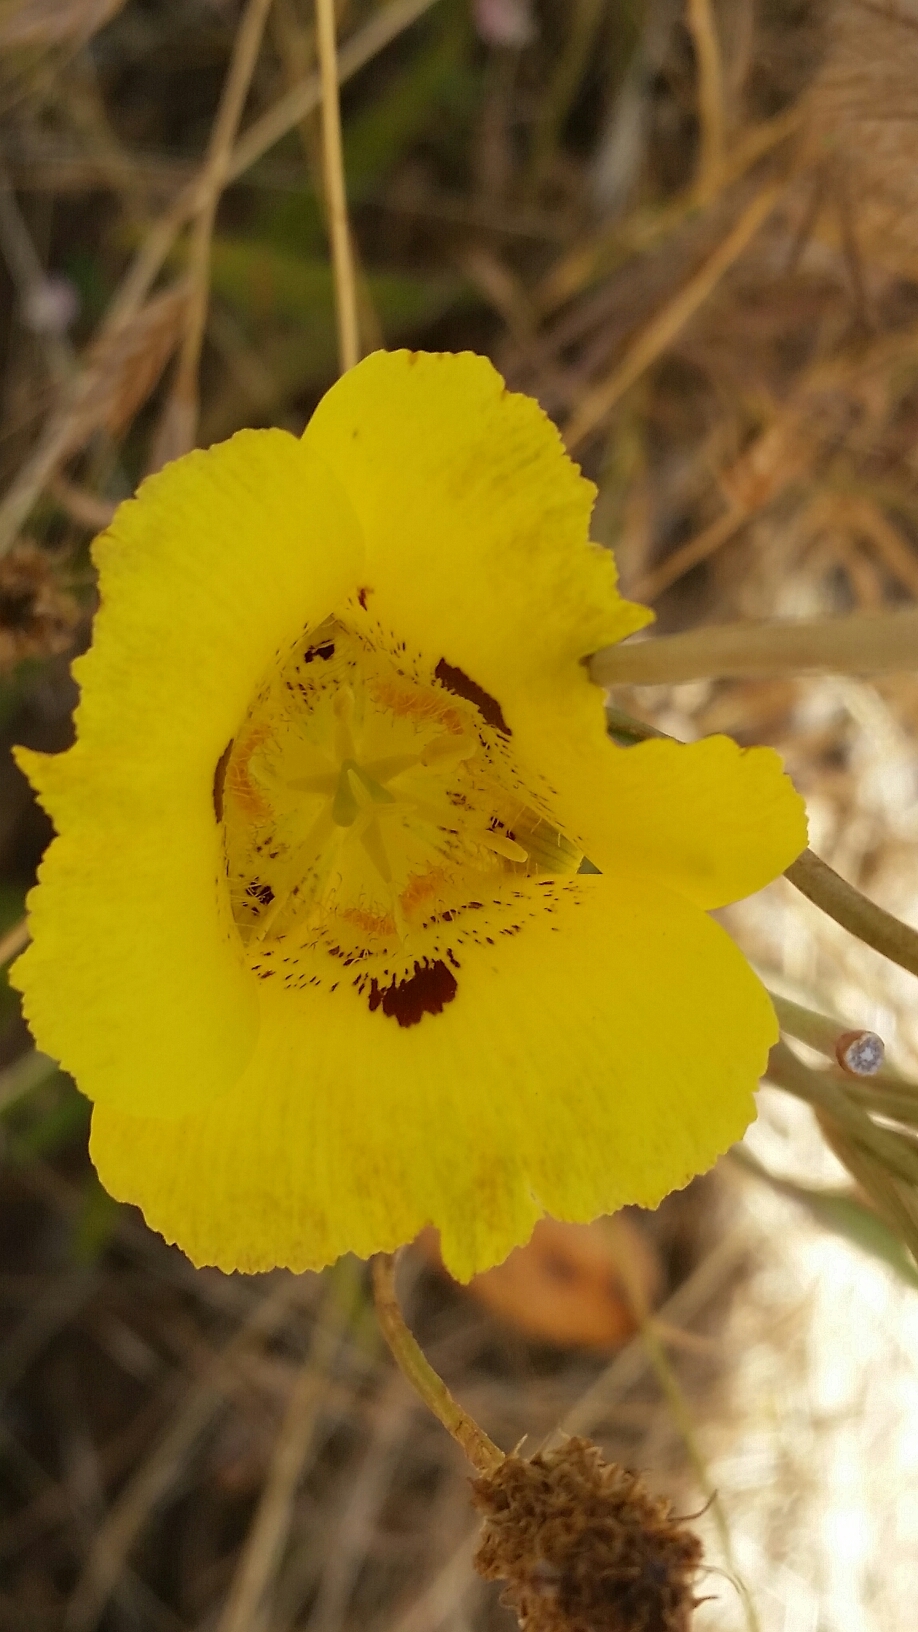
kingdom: Plantae
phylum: Tracheophyta
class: Liliopsida
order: Liliales
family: Liliaceae
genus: Calochortus
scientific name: Calochortus luteus
